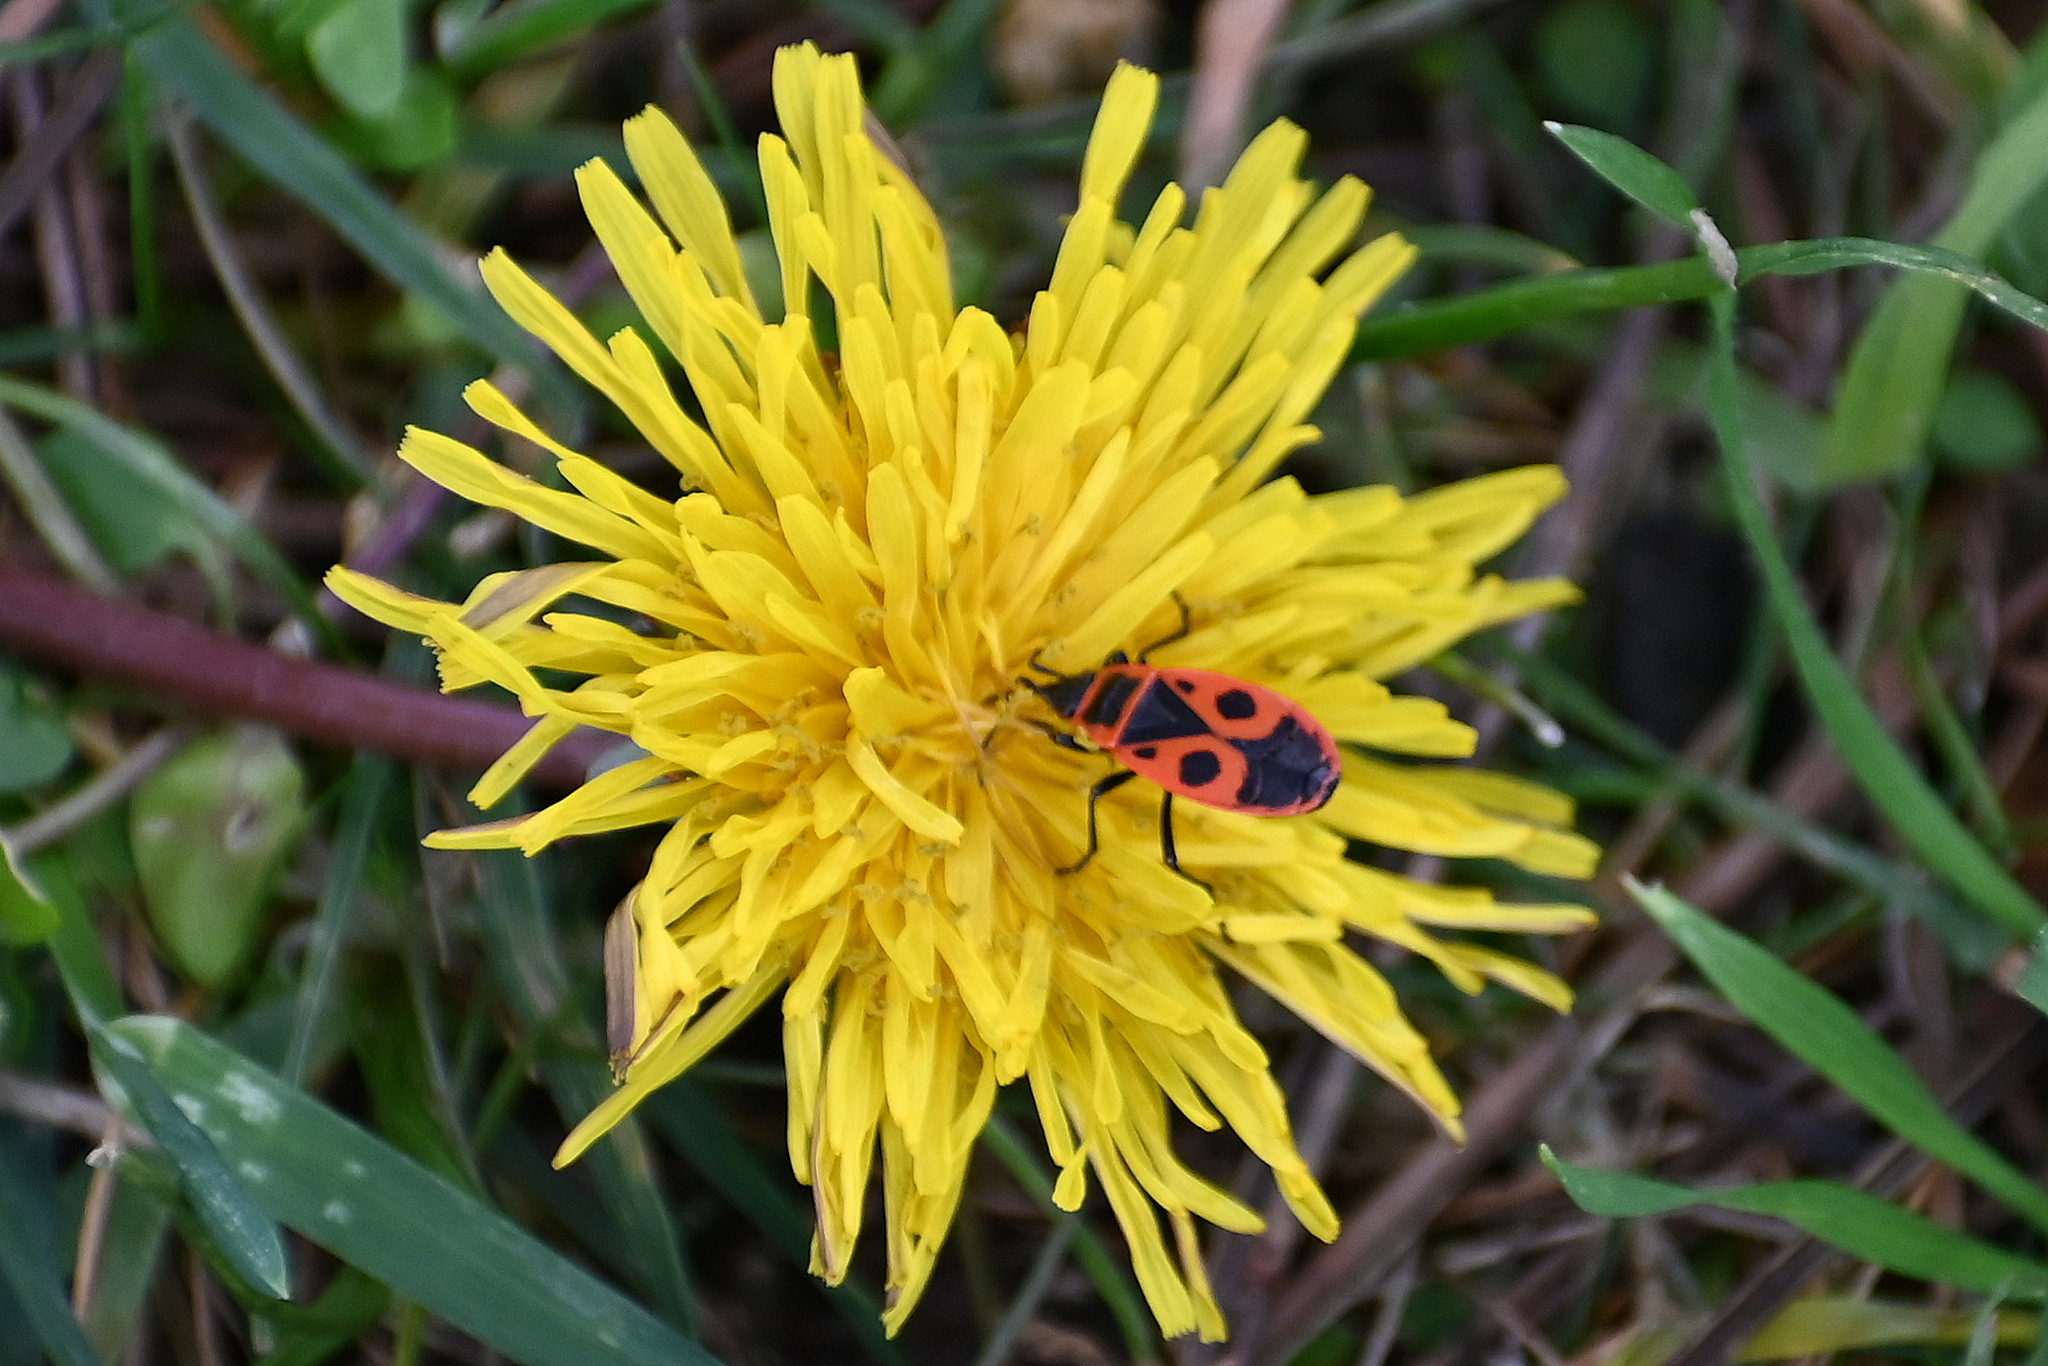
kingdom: Animalia
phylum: Arthropoda
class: Insecta
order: Hemiptera
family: Pyrrhocoridae
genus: Pyrrhocoris
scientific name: Pyrrhocoris apterus
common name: Firebug
